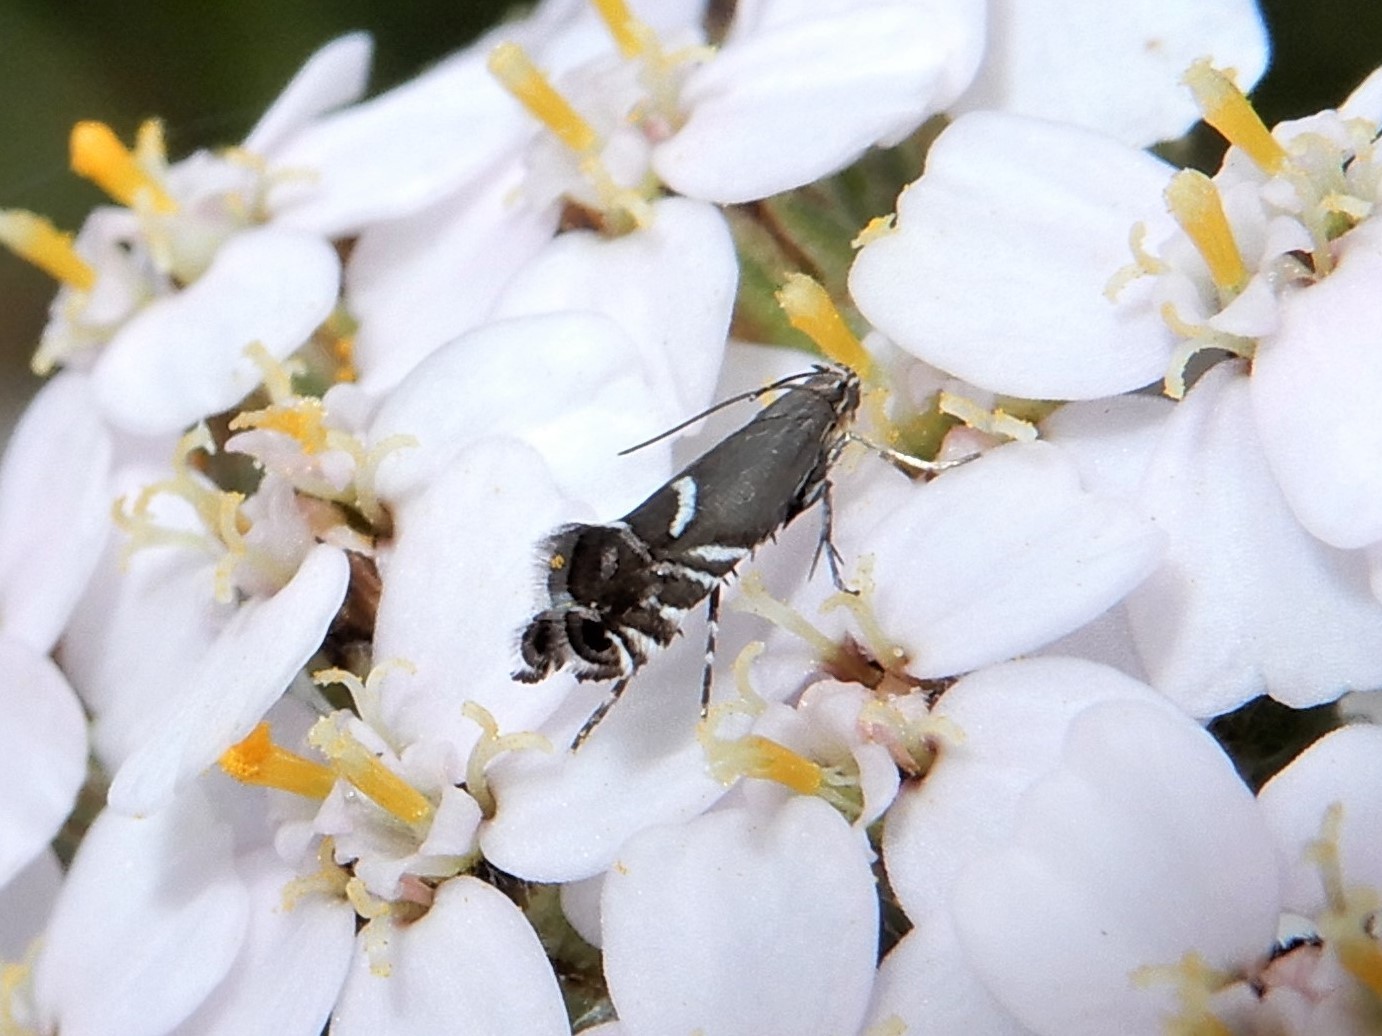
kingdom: Animalia
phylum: Arthropoda
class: Insecta
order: Lepidoptera
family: Glyphipterigidae
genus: Glyphipterix
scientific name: Glyphipterix simpliciella
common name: Cocksfoot moth
